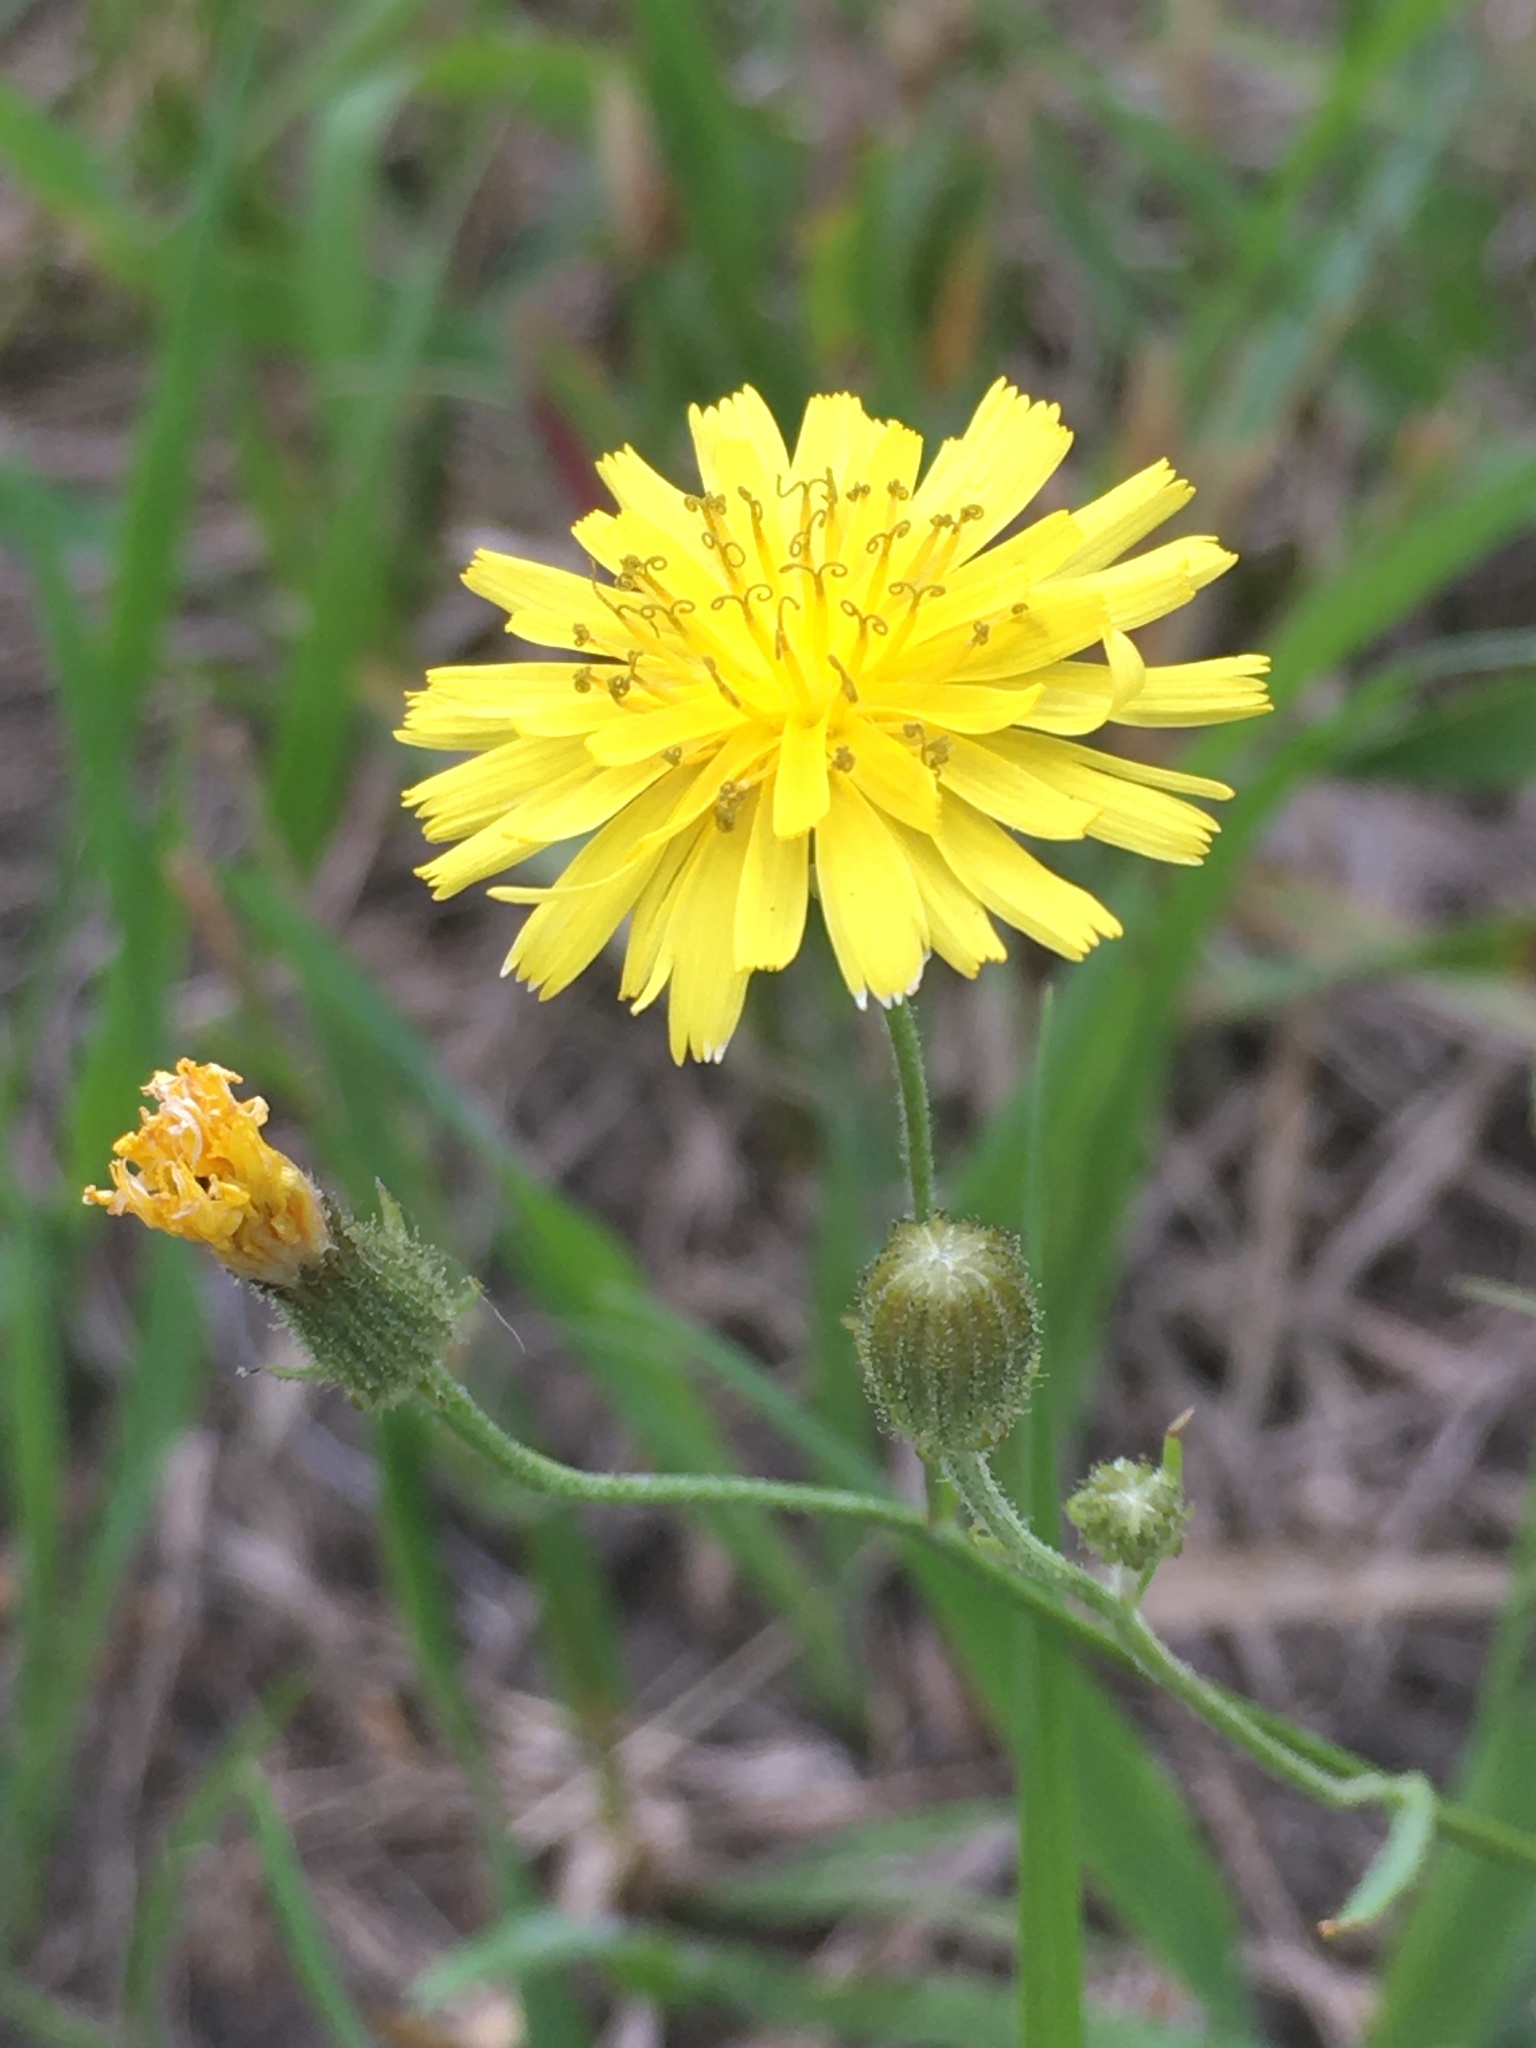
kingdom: Plantae
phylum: Tracheophyta
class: Magnoliopsida
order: Asterales
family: Asteraceae
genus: Crepis
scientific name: Crepis tectorum
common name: Narrow-leaved hawk's-beard
